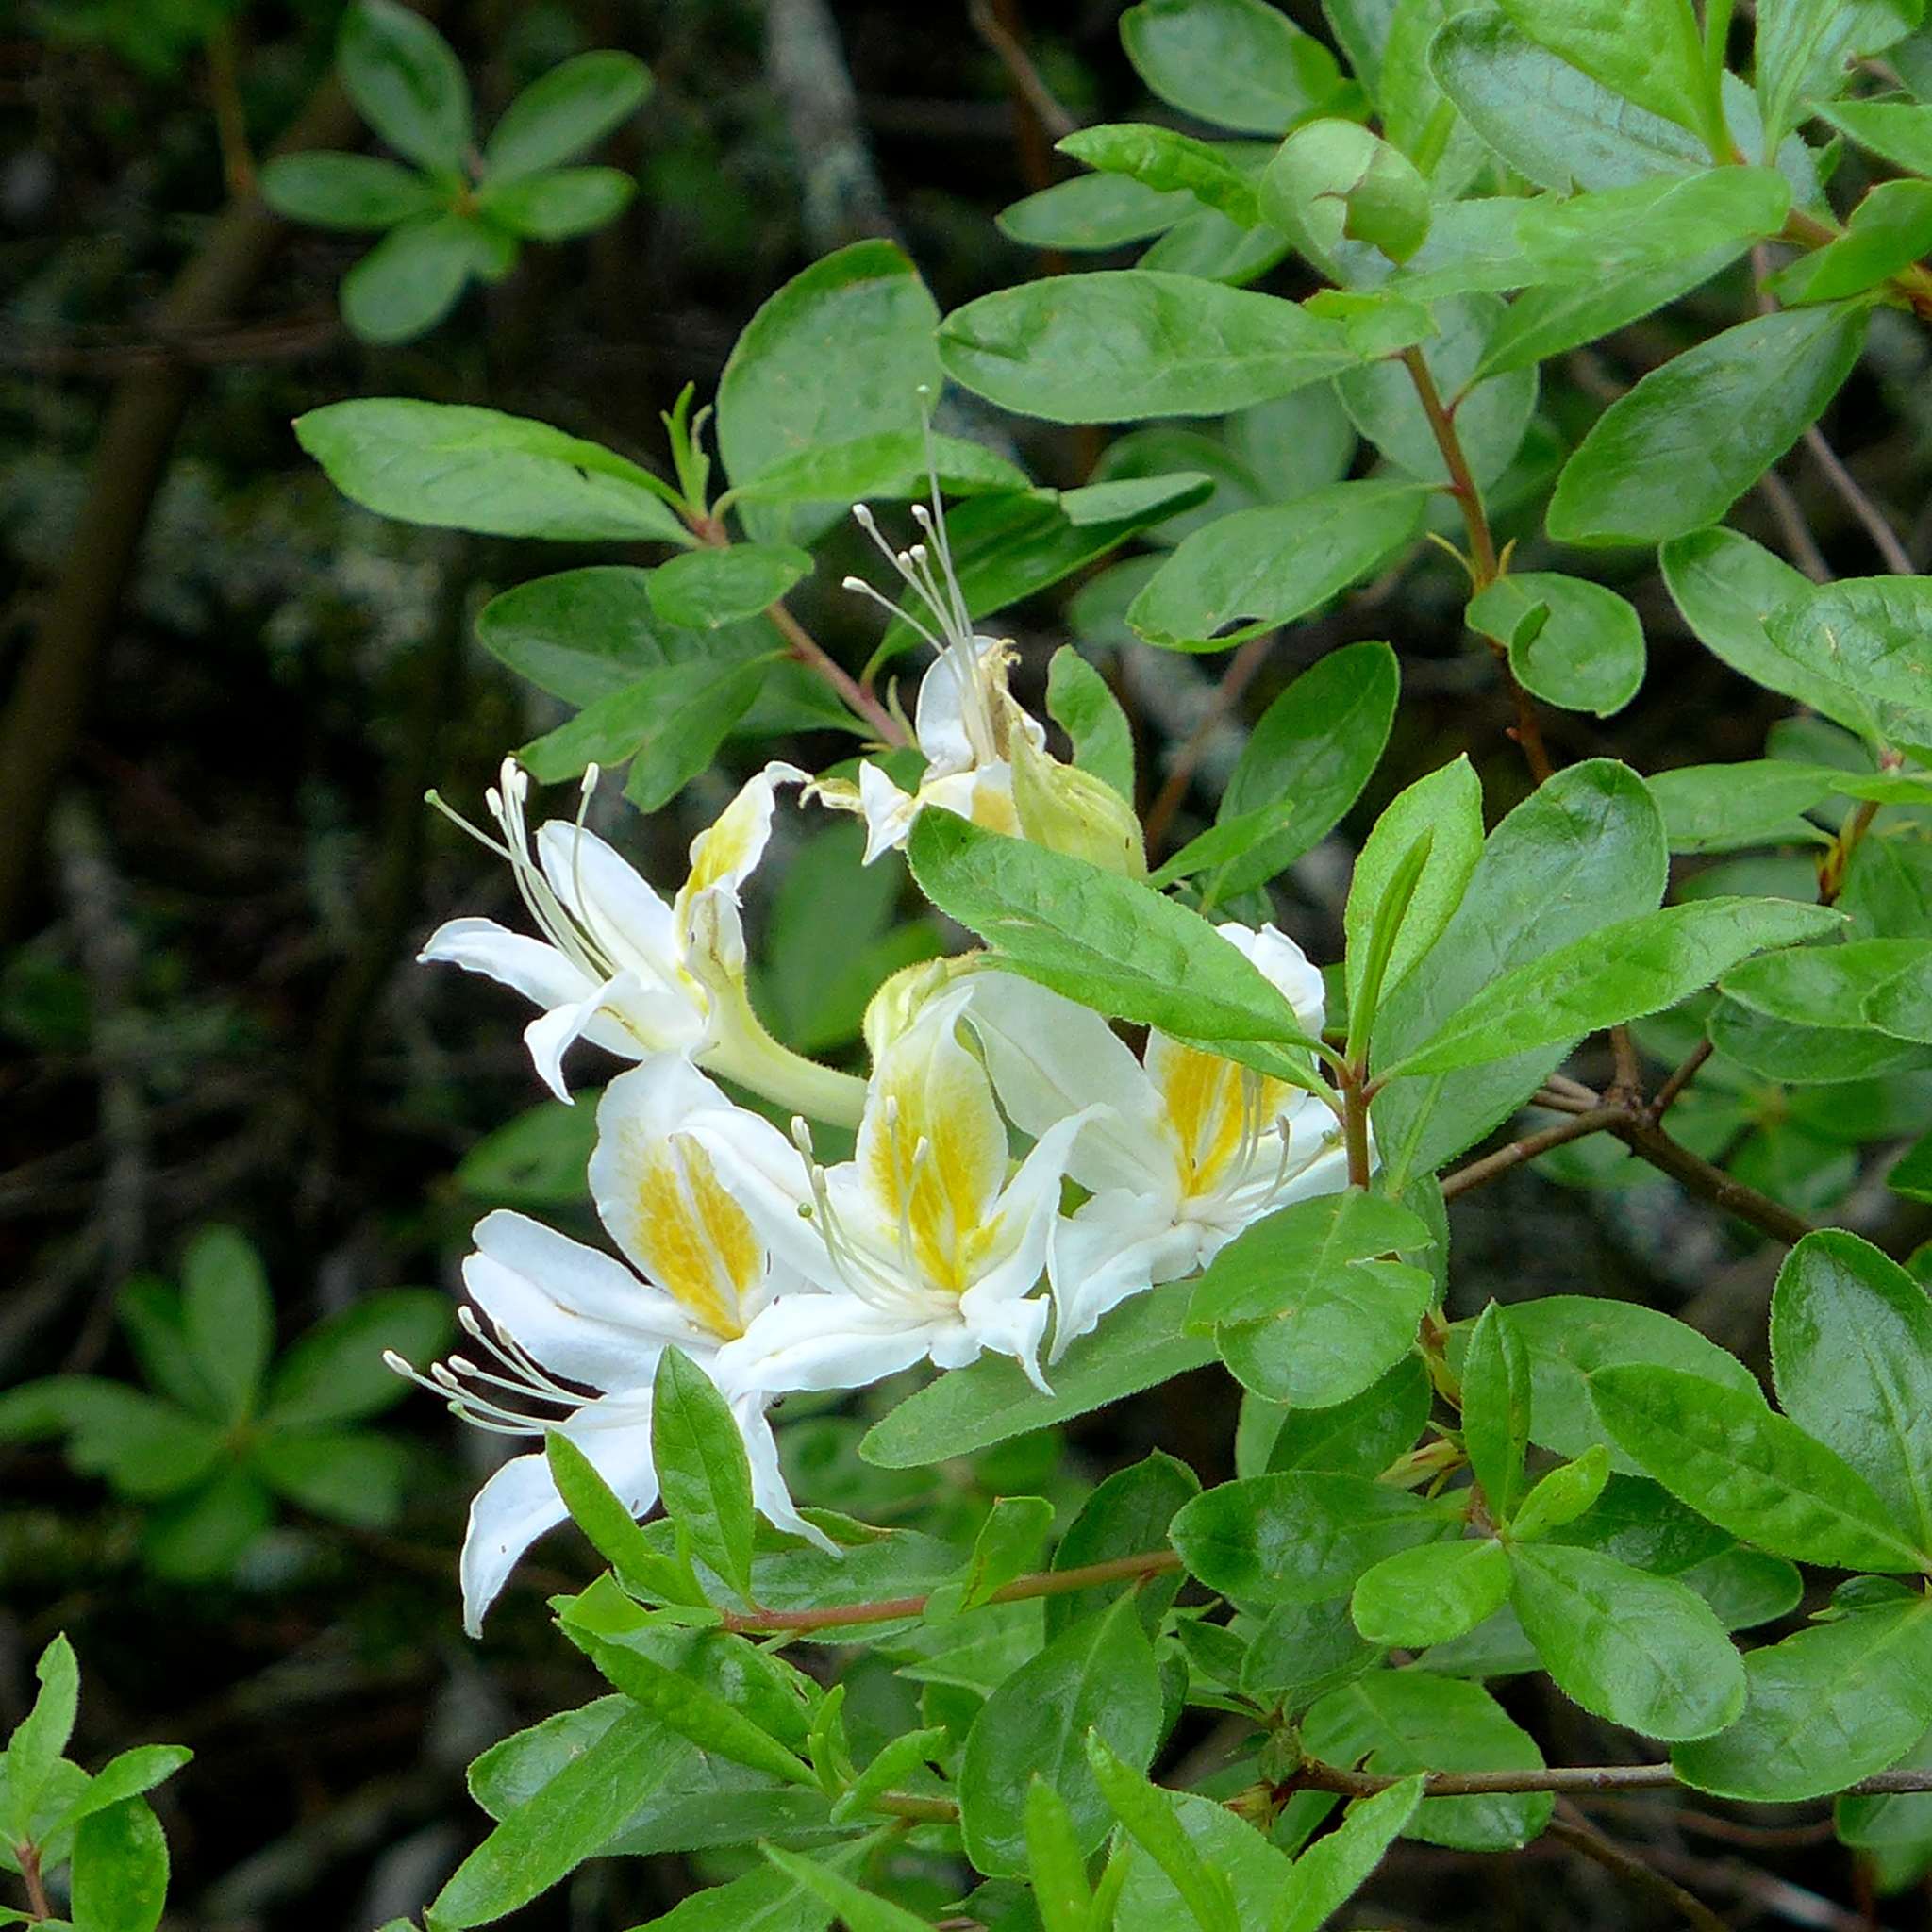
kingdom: Plantae
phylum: Tracheophyta
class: Magnoliopsida
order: Ericales
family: Ericaceae
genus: Rhododendron
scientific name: Rhododendron occidentale
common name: Western azalea
